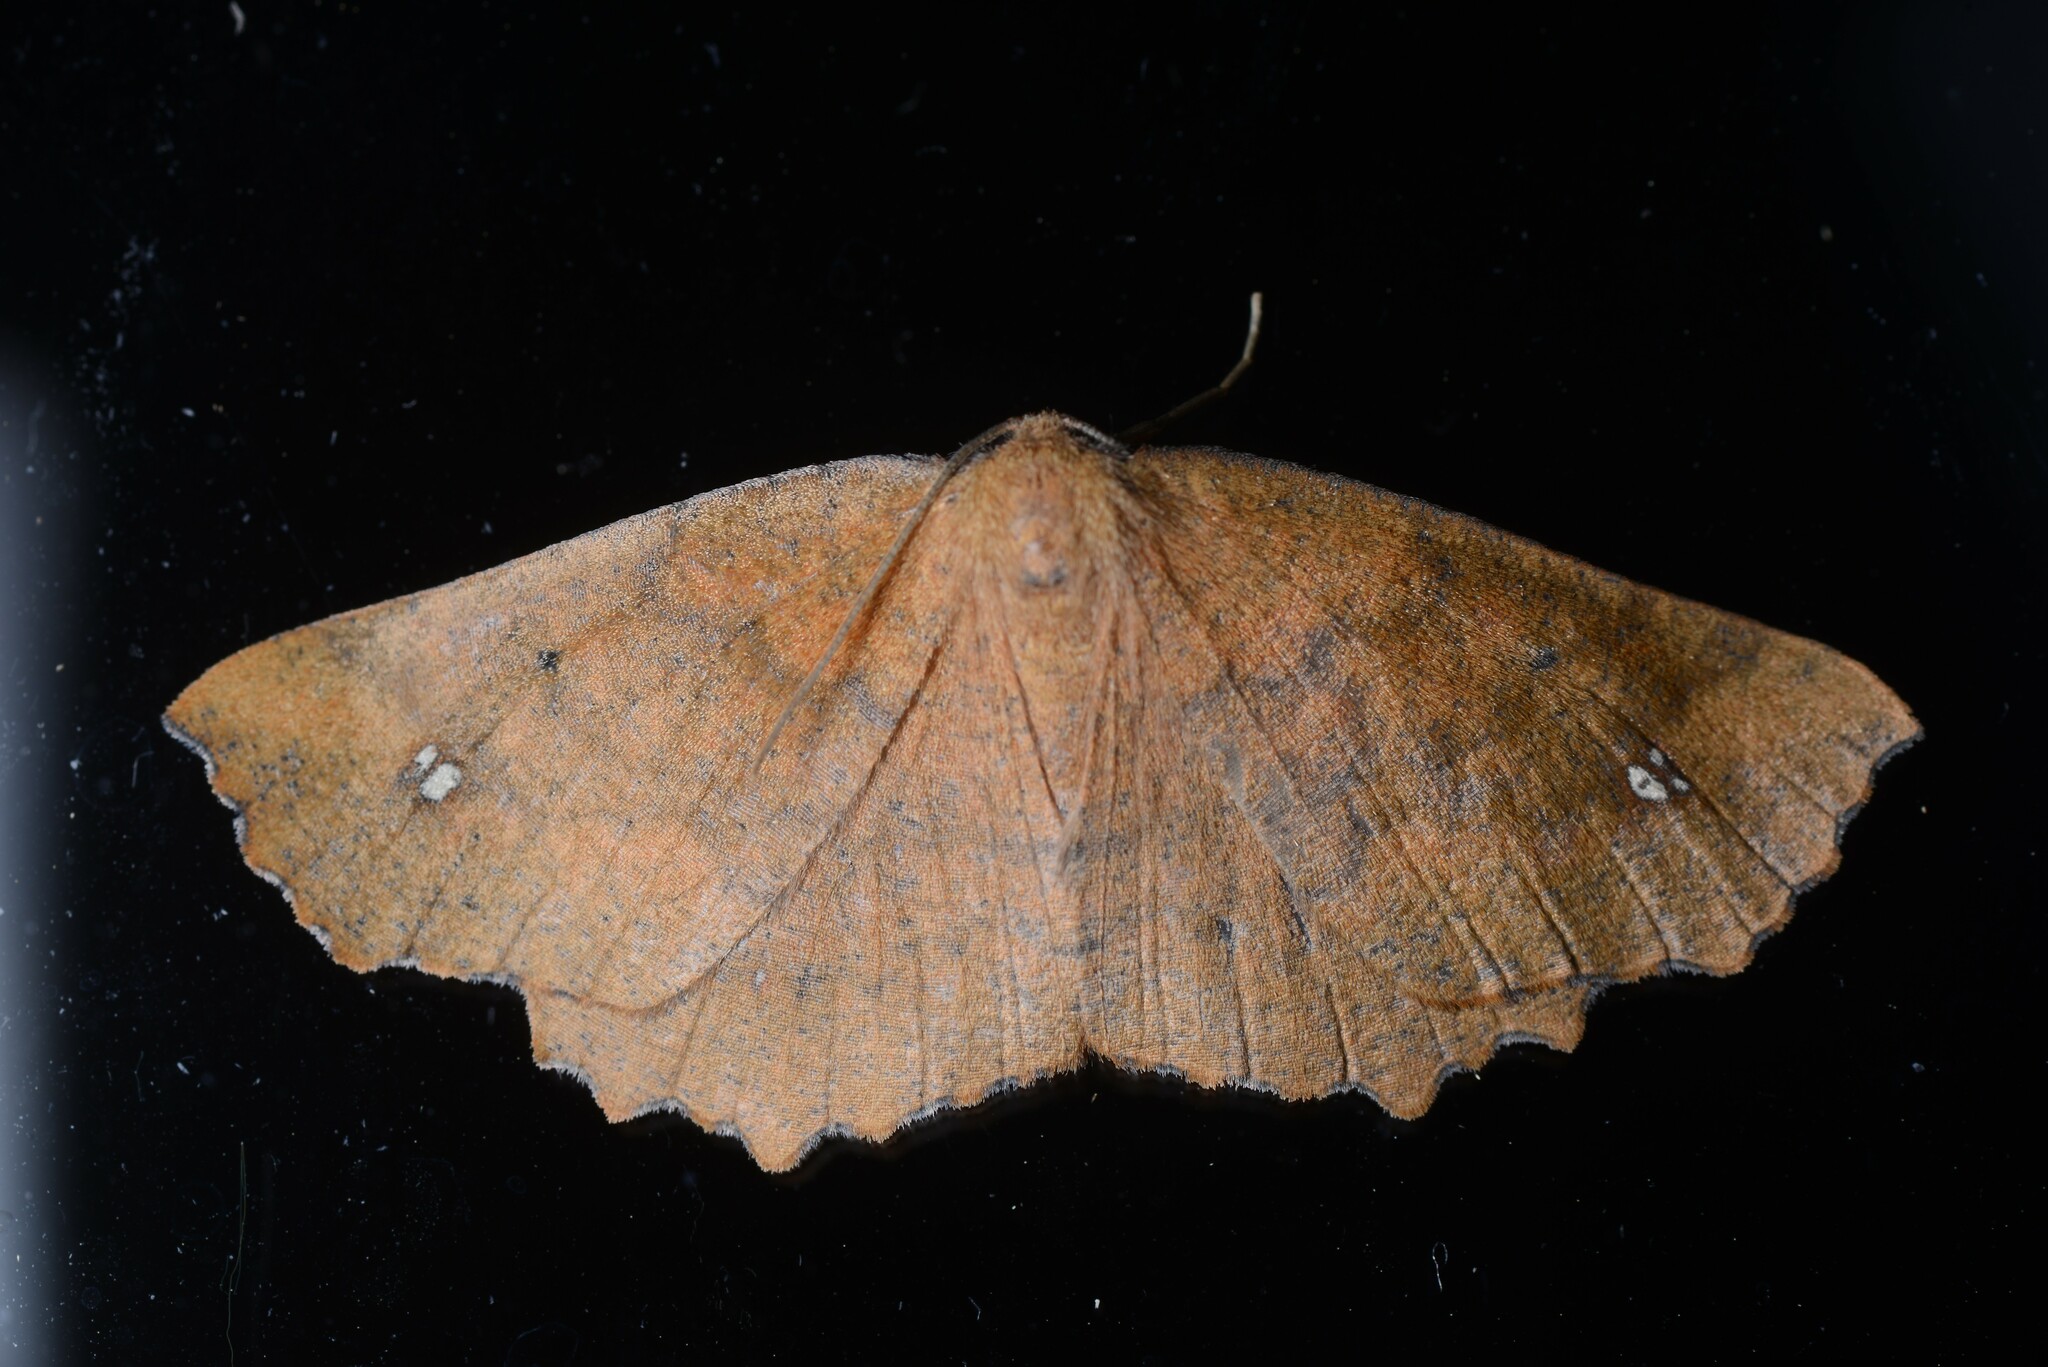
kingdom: Animalia
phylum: Arthropoda
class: Insecta
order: Lepidoptera
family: Geometridae
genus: Xyridacma
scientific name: Xyridacma ustaria
